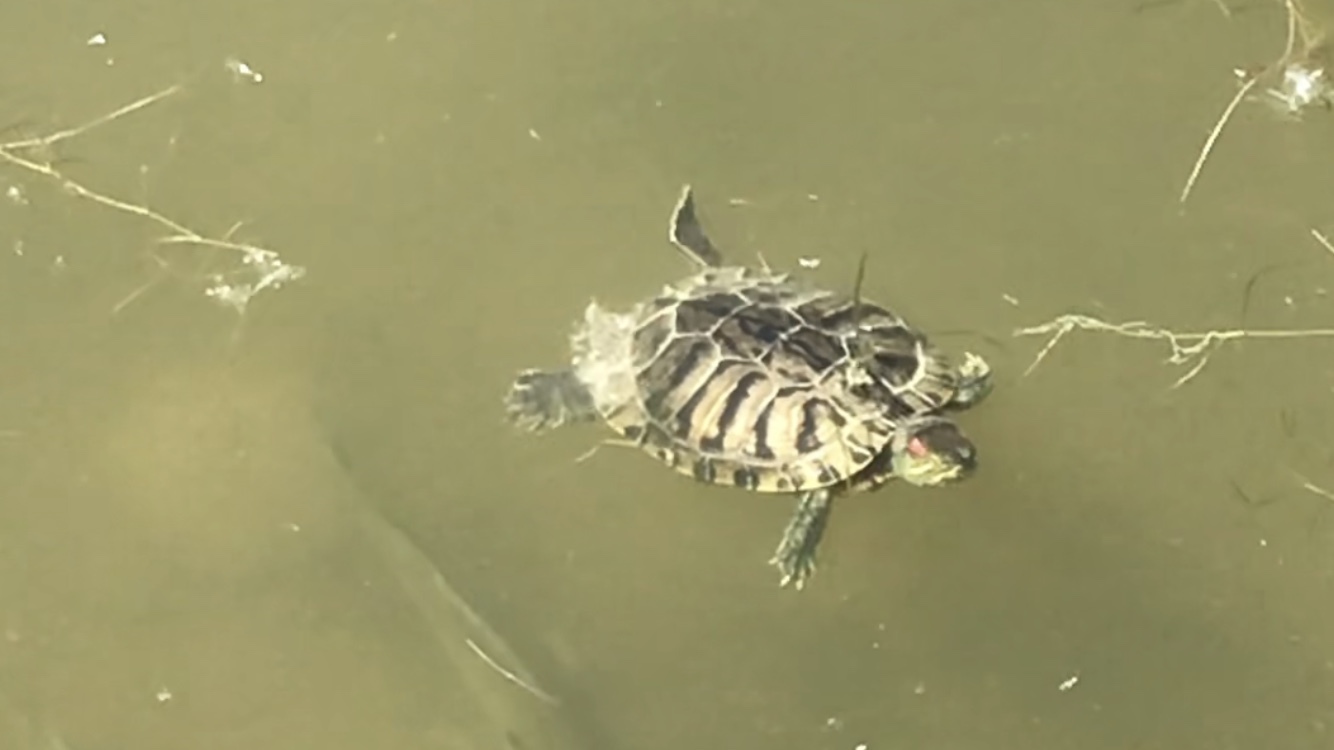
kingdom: Animalia
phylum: Chordata
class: Testudines
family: Emydidae
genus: Trachemys
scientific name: Trachemys scripta
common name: Slider
